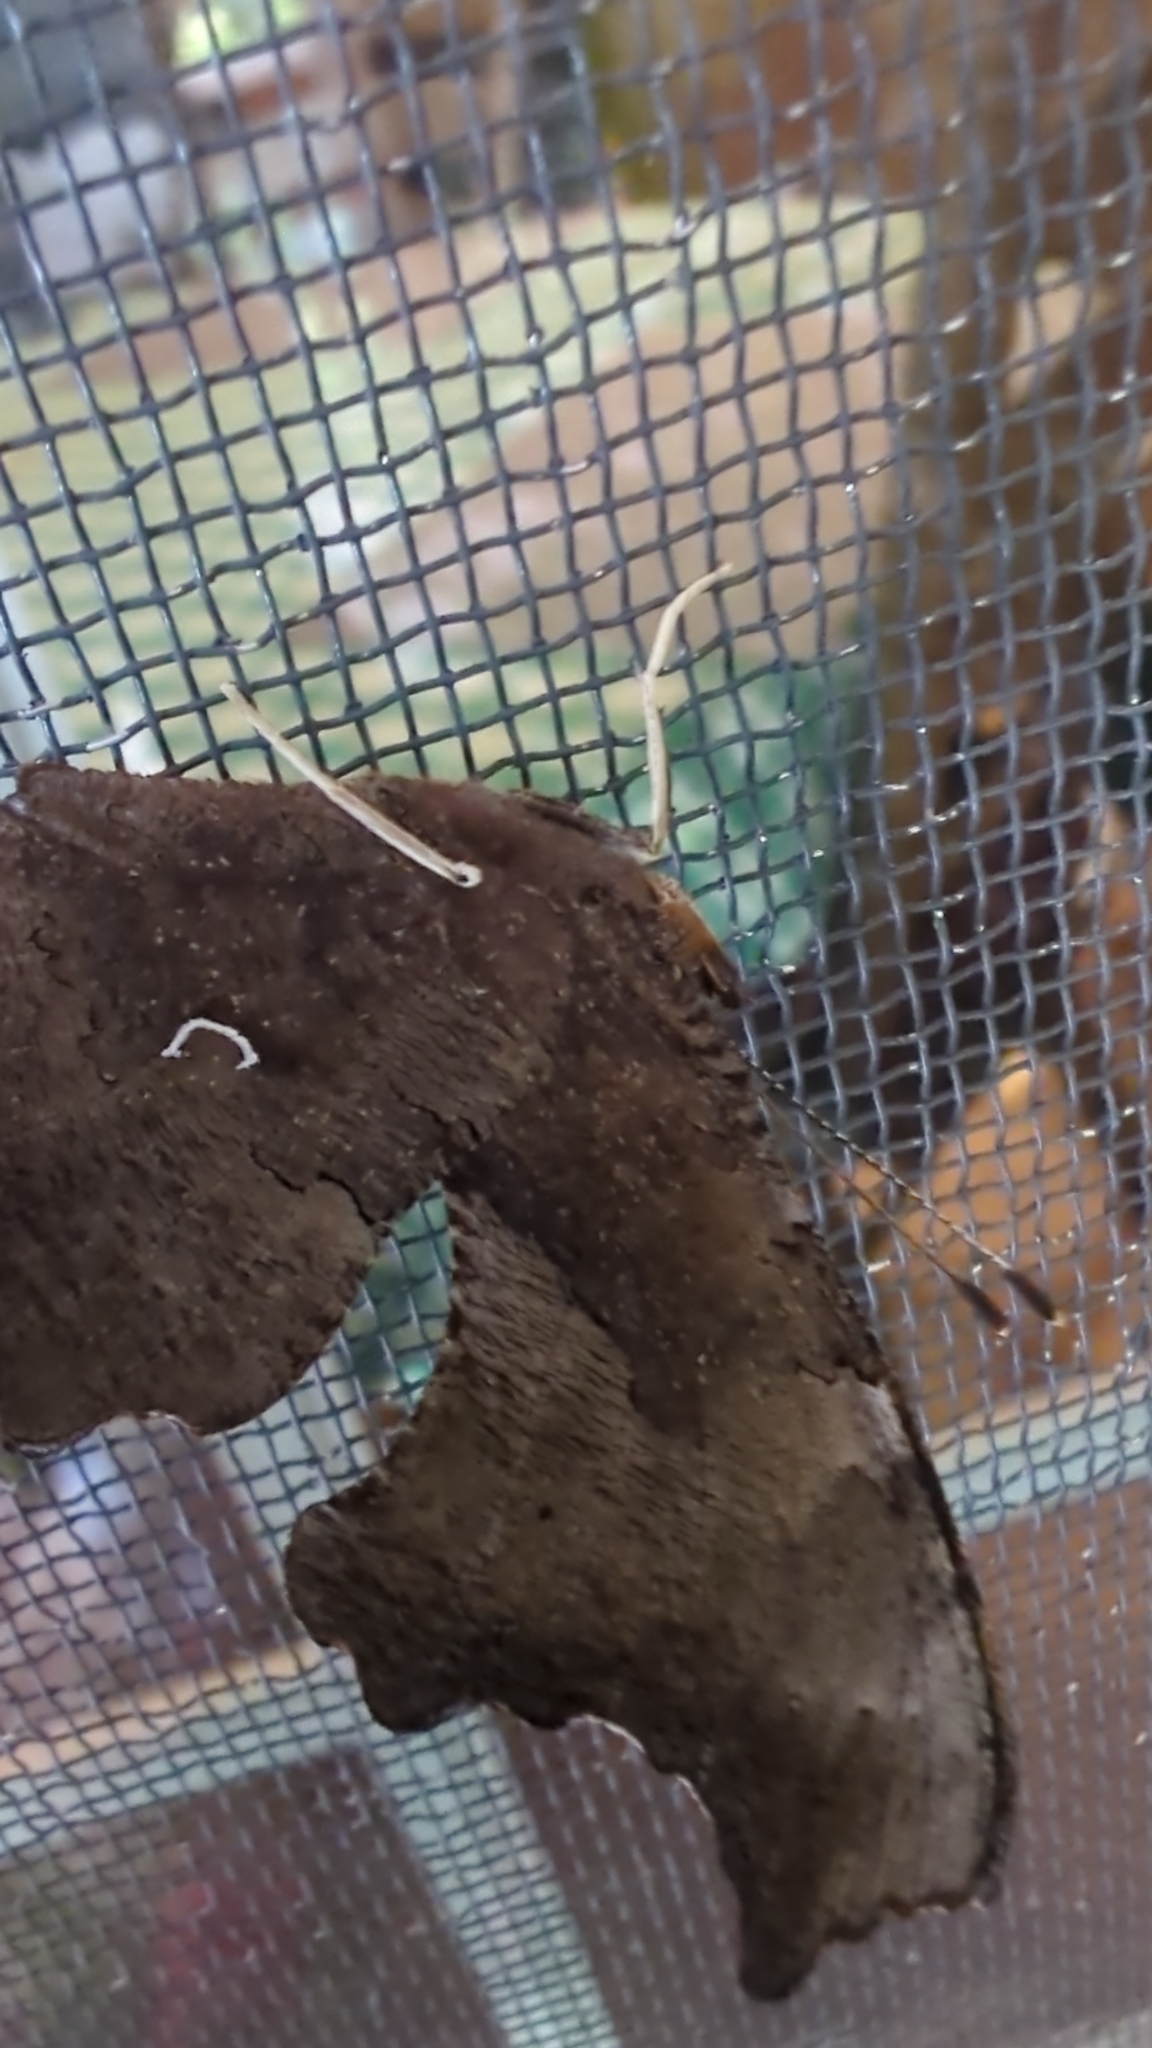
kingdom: Animalia
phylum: Arthropoda
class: Insecta
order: Lepidoptera
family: Nymphalidae
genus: Polygonia
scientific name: Polygonia comma
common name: Eastern comma
